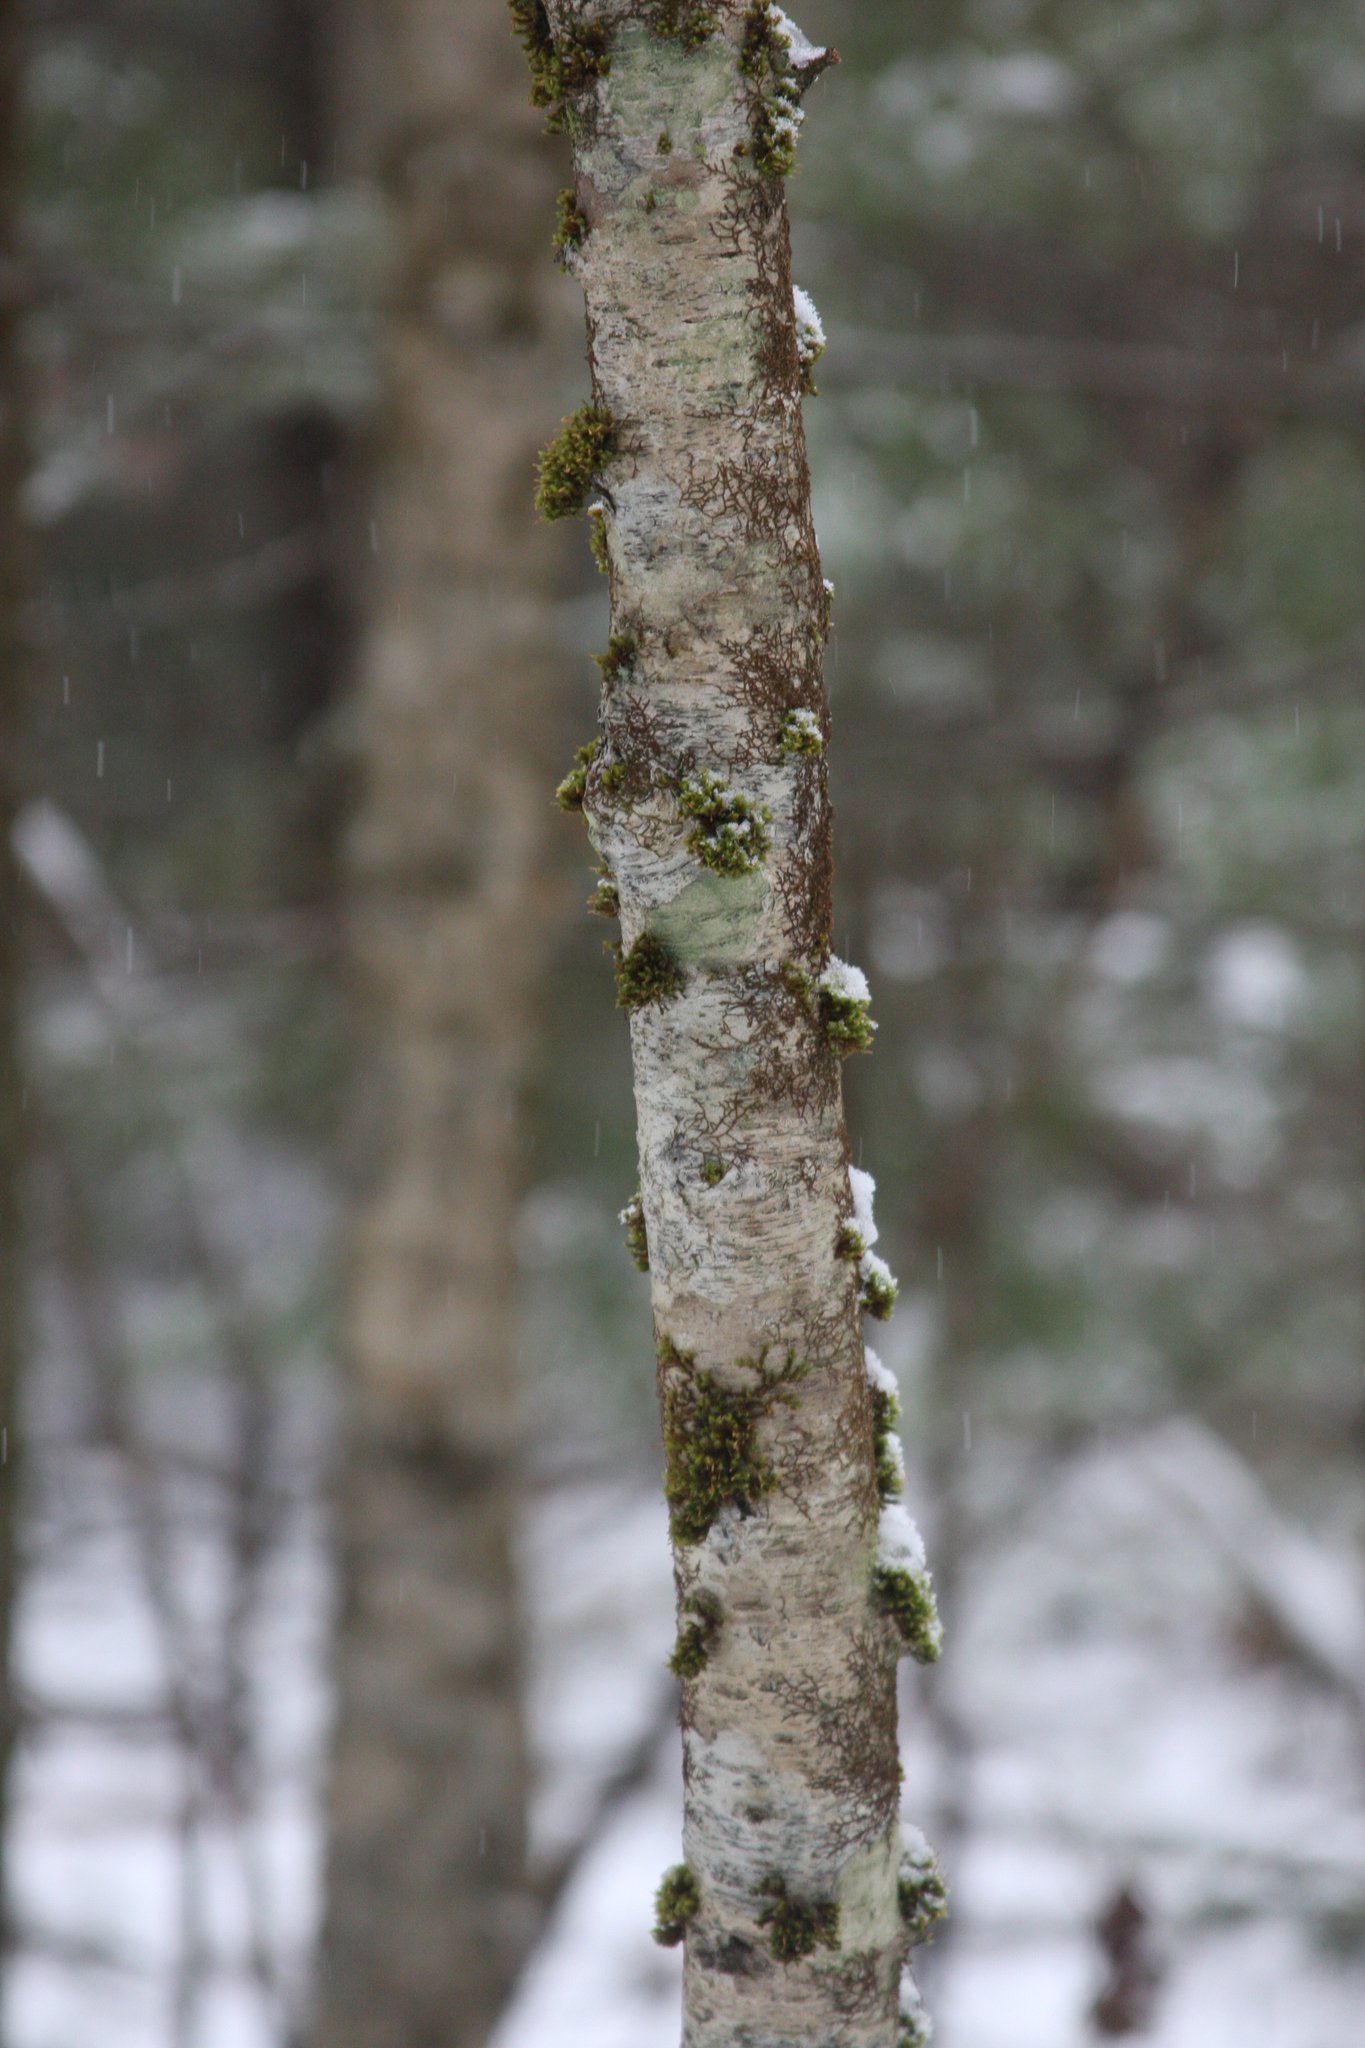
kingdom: Plantae
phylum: Tracheophyta
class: Magnoliopsida
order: Fagales
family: Betulaceae
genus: Betula
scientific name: Betula alleghaniensis
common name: Yellow birch
